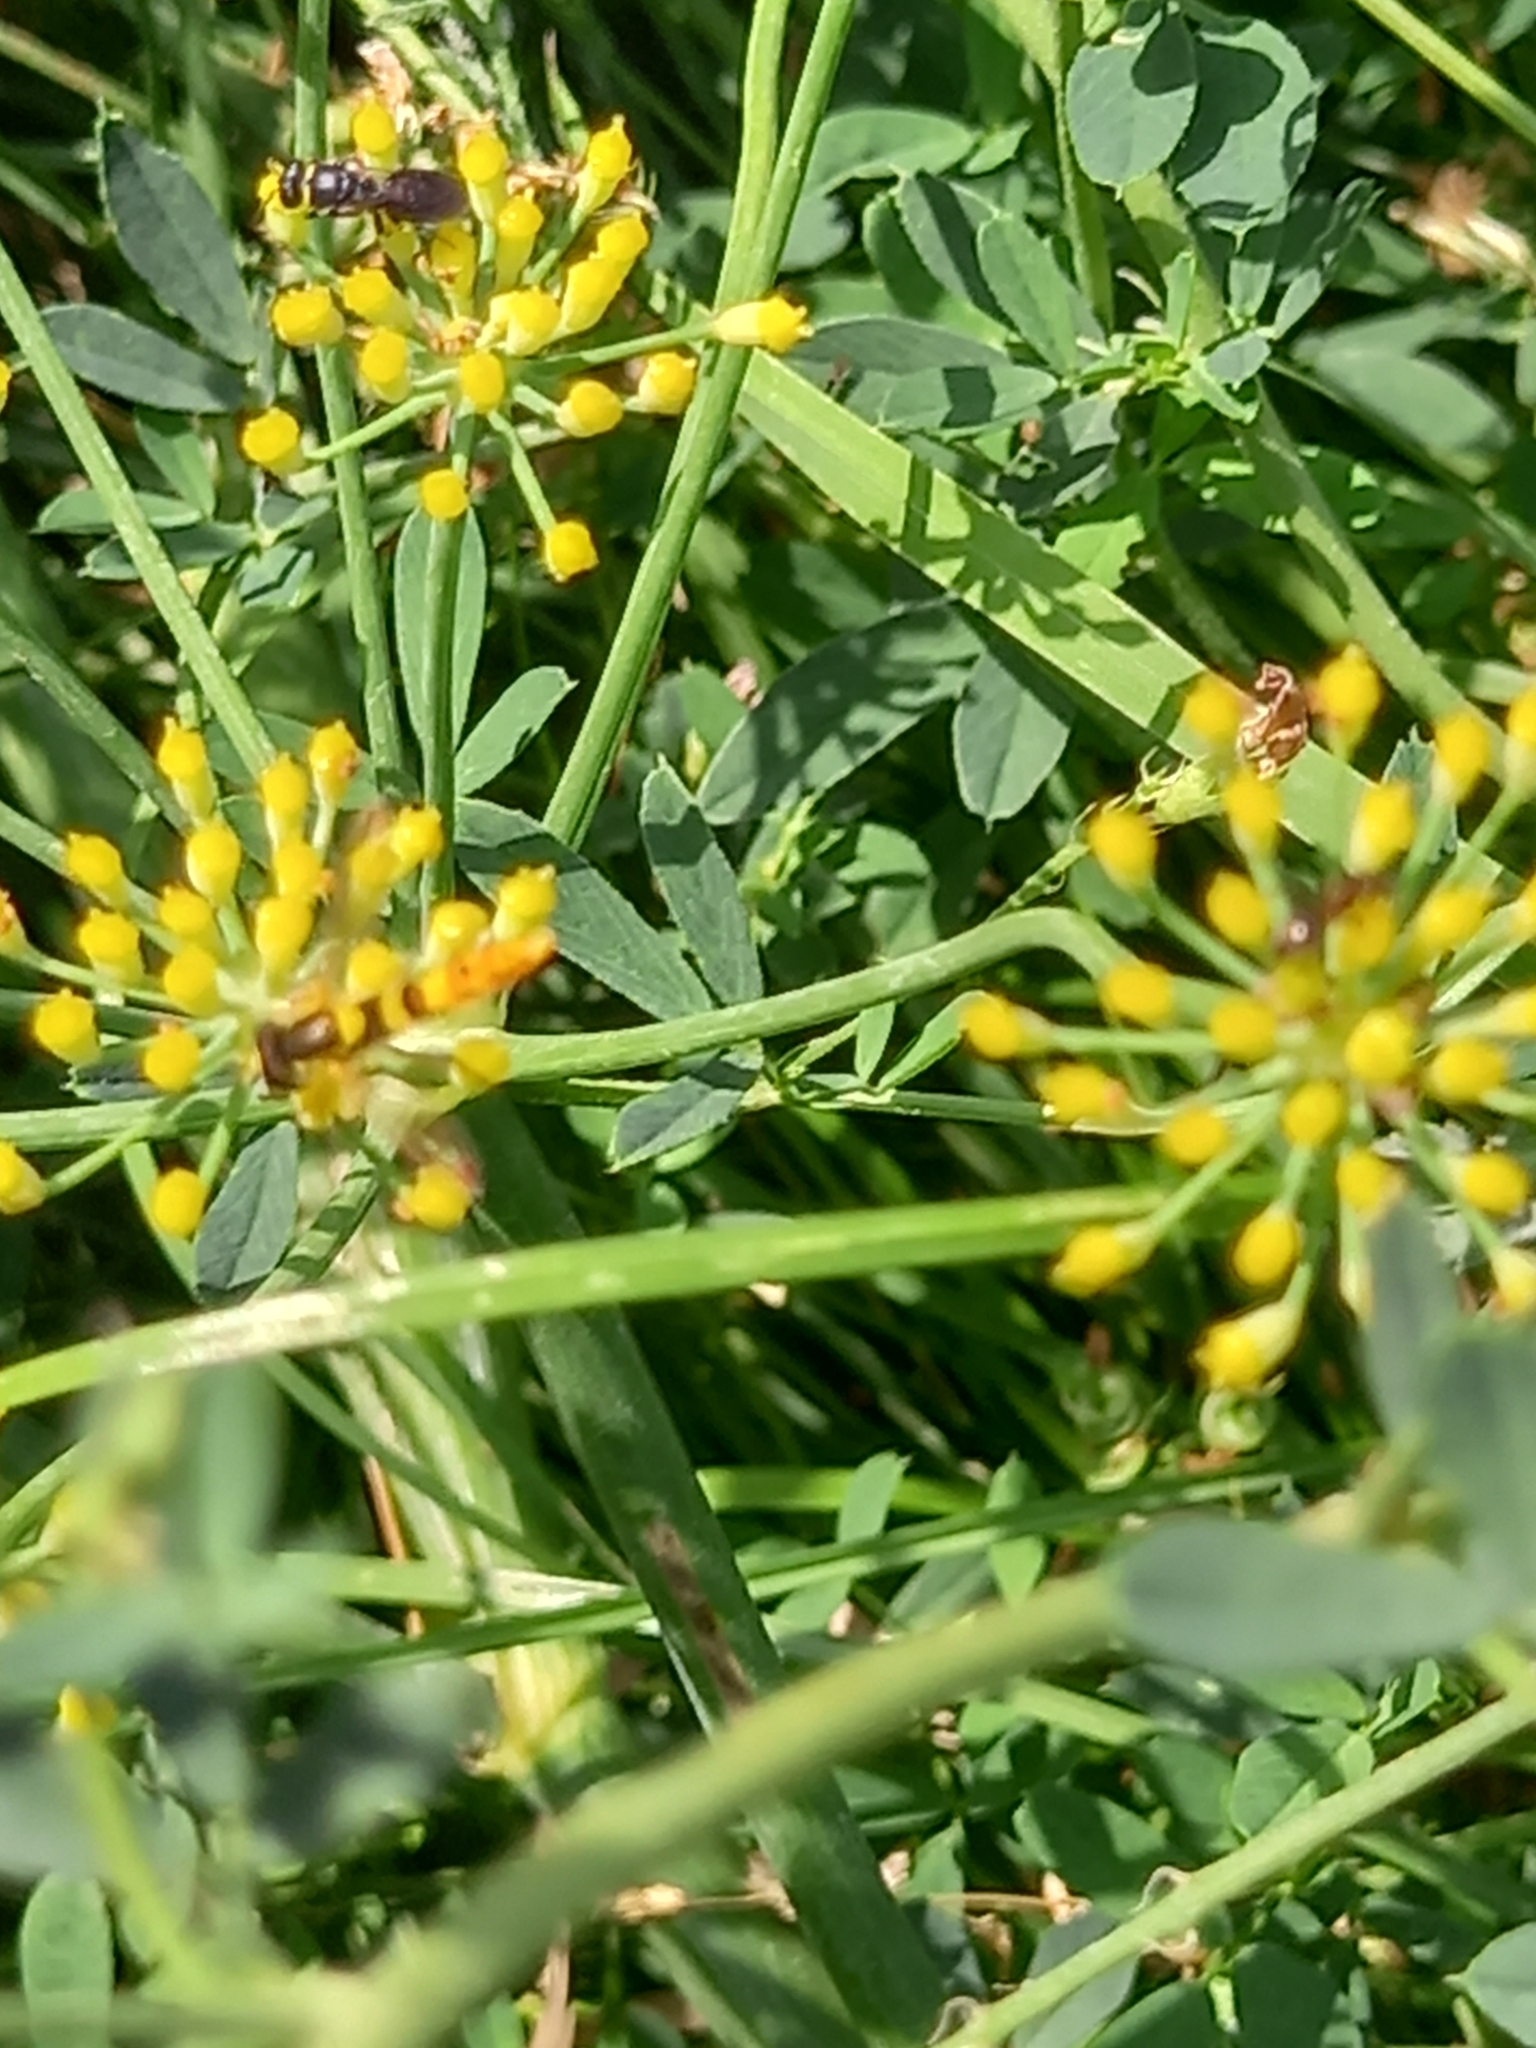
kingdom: Animalia
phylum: Arthropoda
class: Insecta
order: Diptera
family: Syrphidae
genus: Sphaerophoria
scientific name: Sphaerophoria scripta
